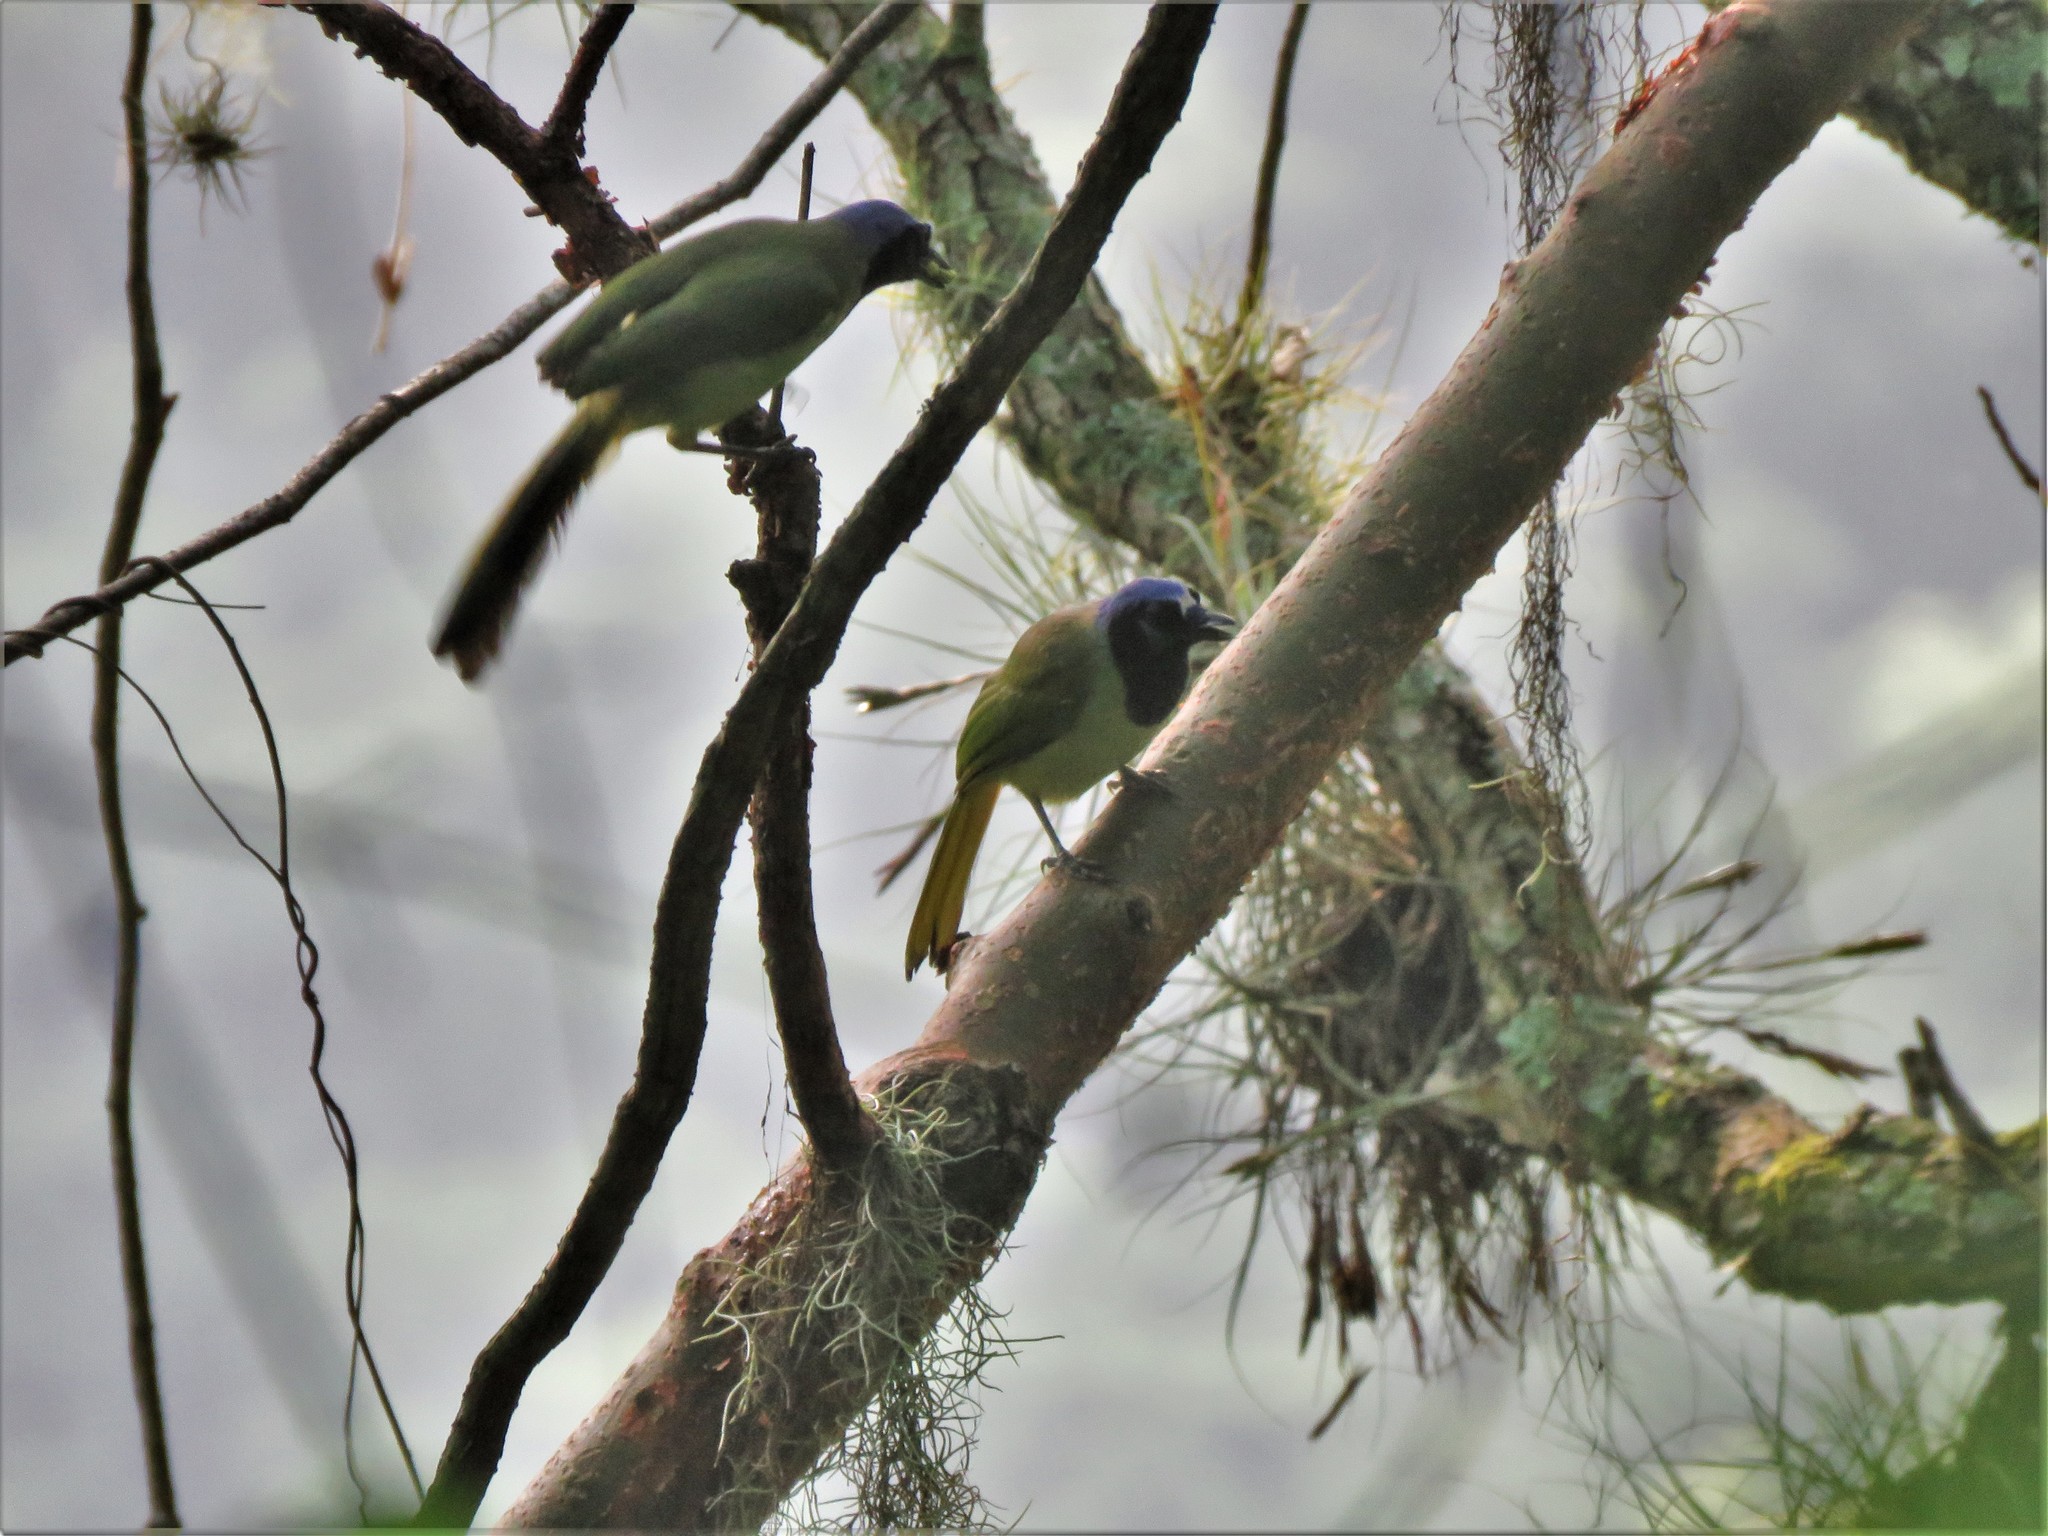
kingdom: Animalia
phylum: Chordata
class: Aves
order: Passeriformes
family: Corvidae
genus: Cyanocorax
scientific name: Cyanocorax yncas
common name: Green jay
